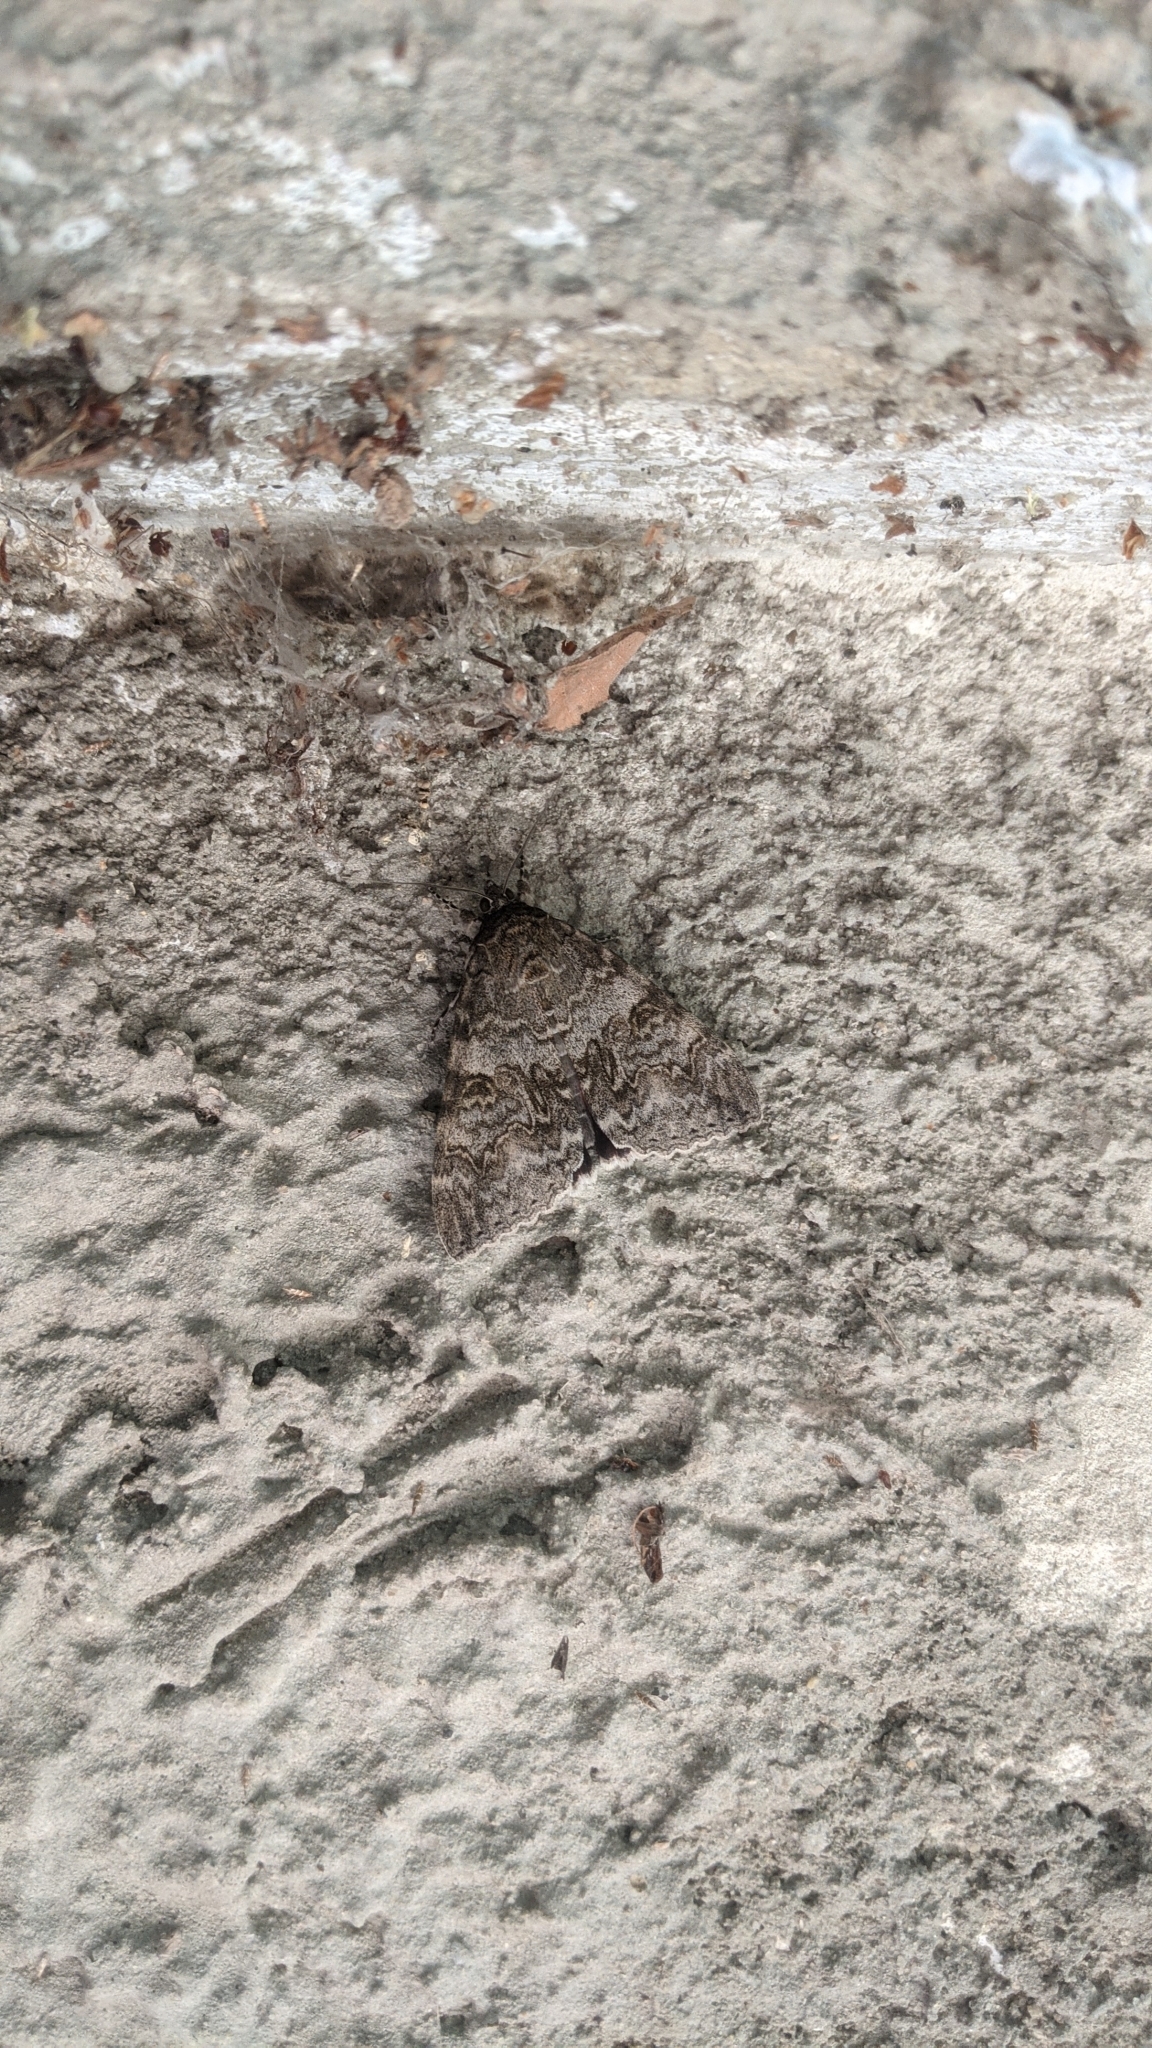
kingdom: Animalia
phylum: Arthropoda
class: Insecta
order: Lepidoptera
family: Erebidae
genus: Catocala
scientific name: Catocala nupta
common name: Red underwing
